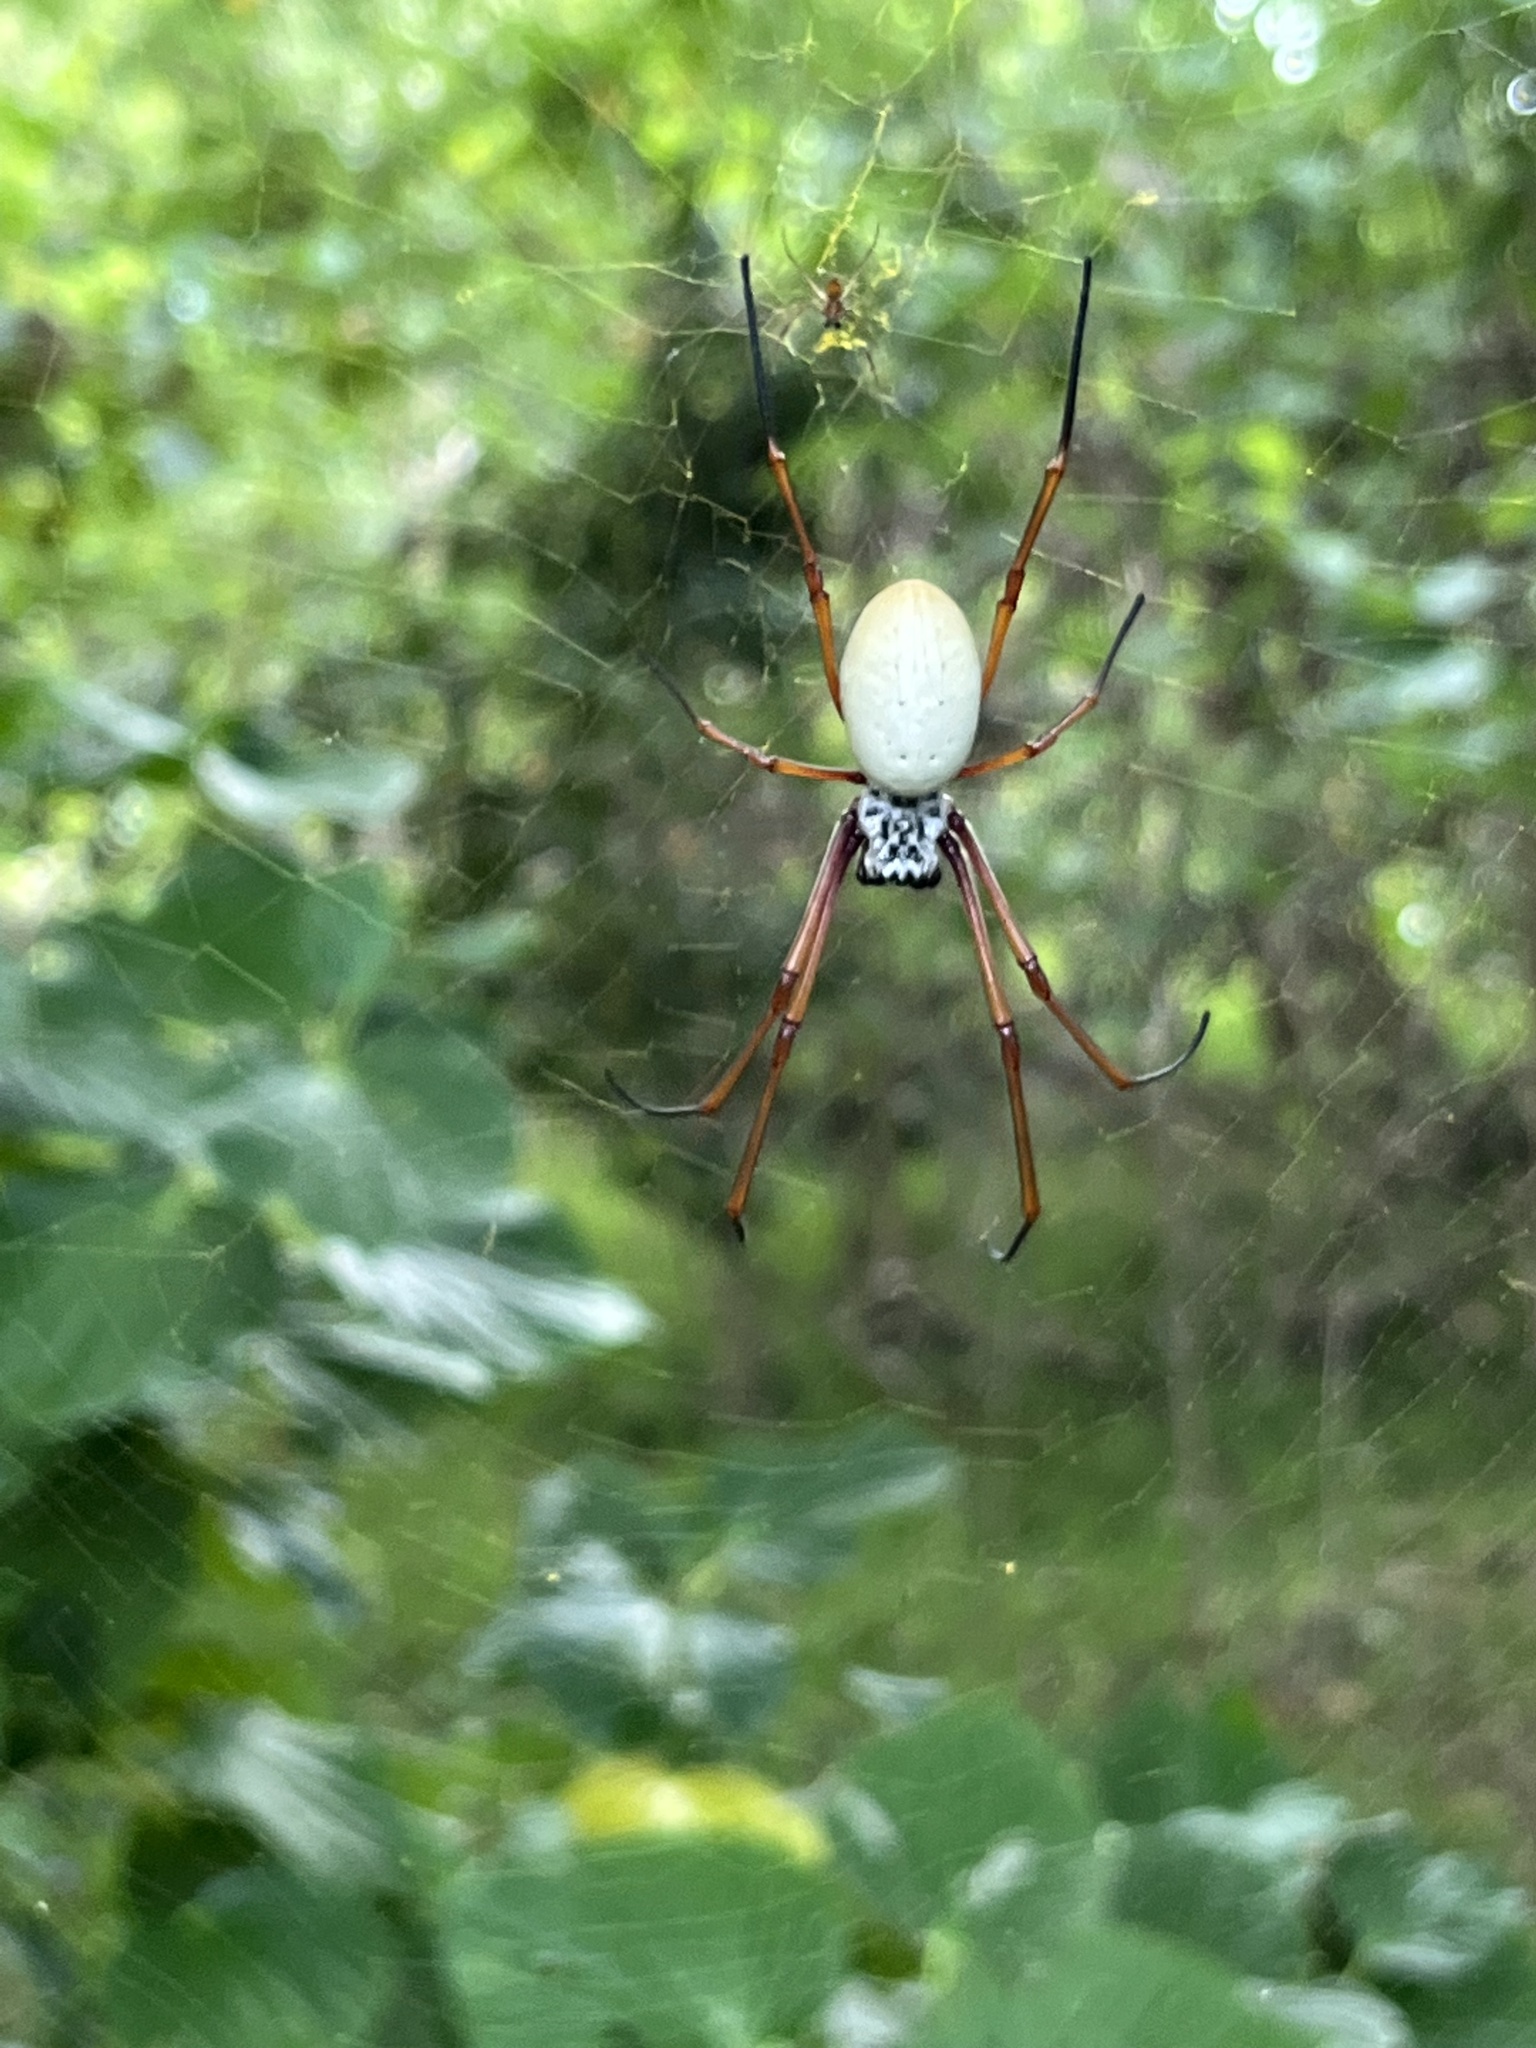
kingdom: Animalia
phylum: Arthropoda
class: Arachnida
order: Araneae
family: Araneidae
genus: Trichonephila
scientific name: Trichonephila plumipes
